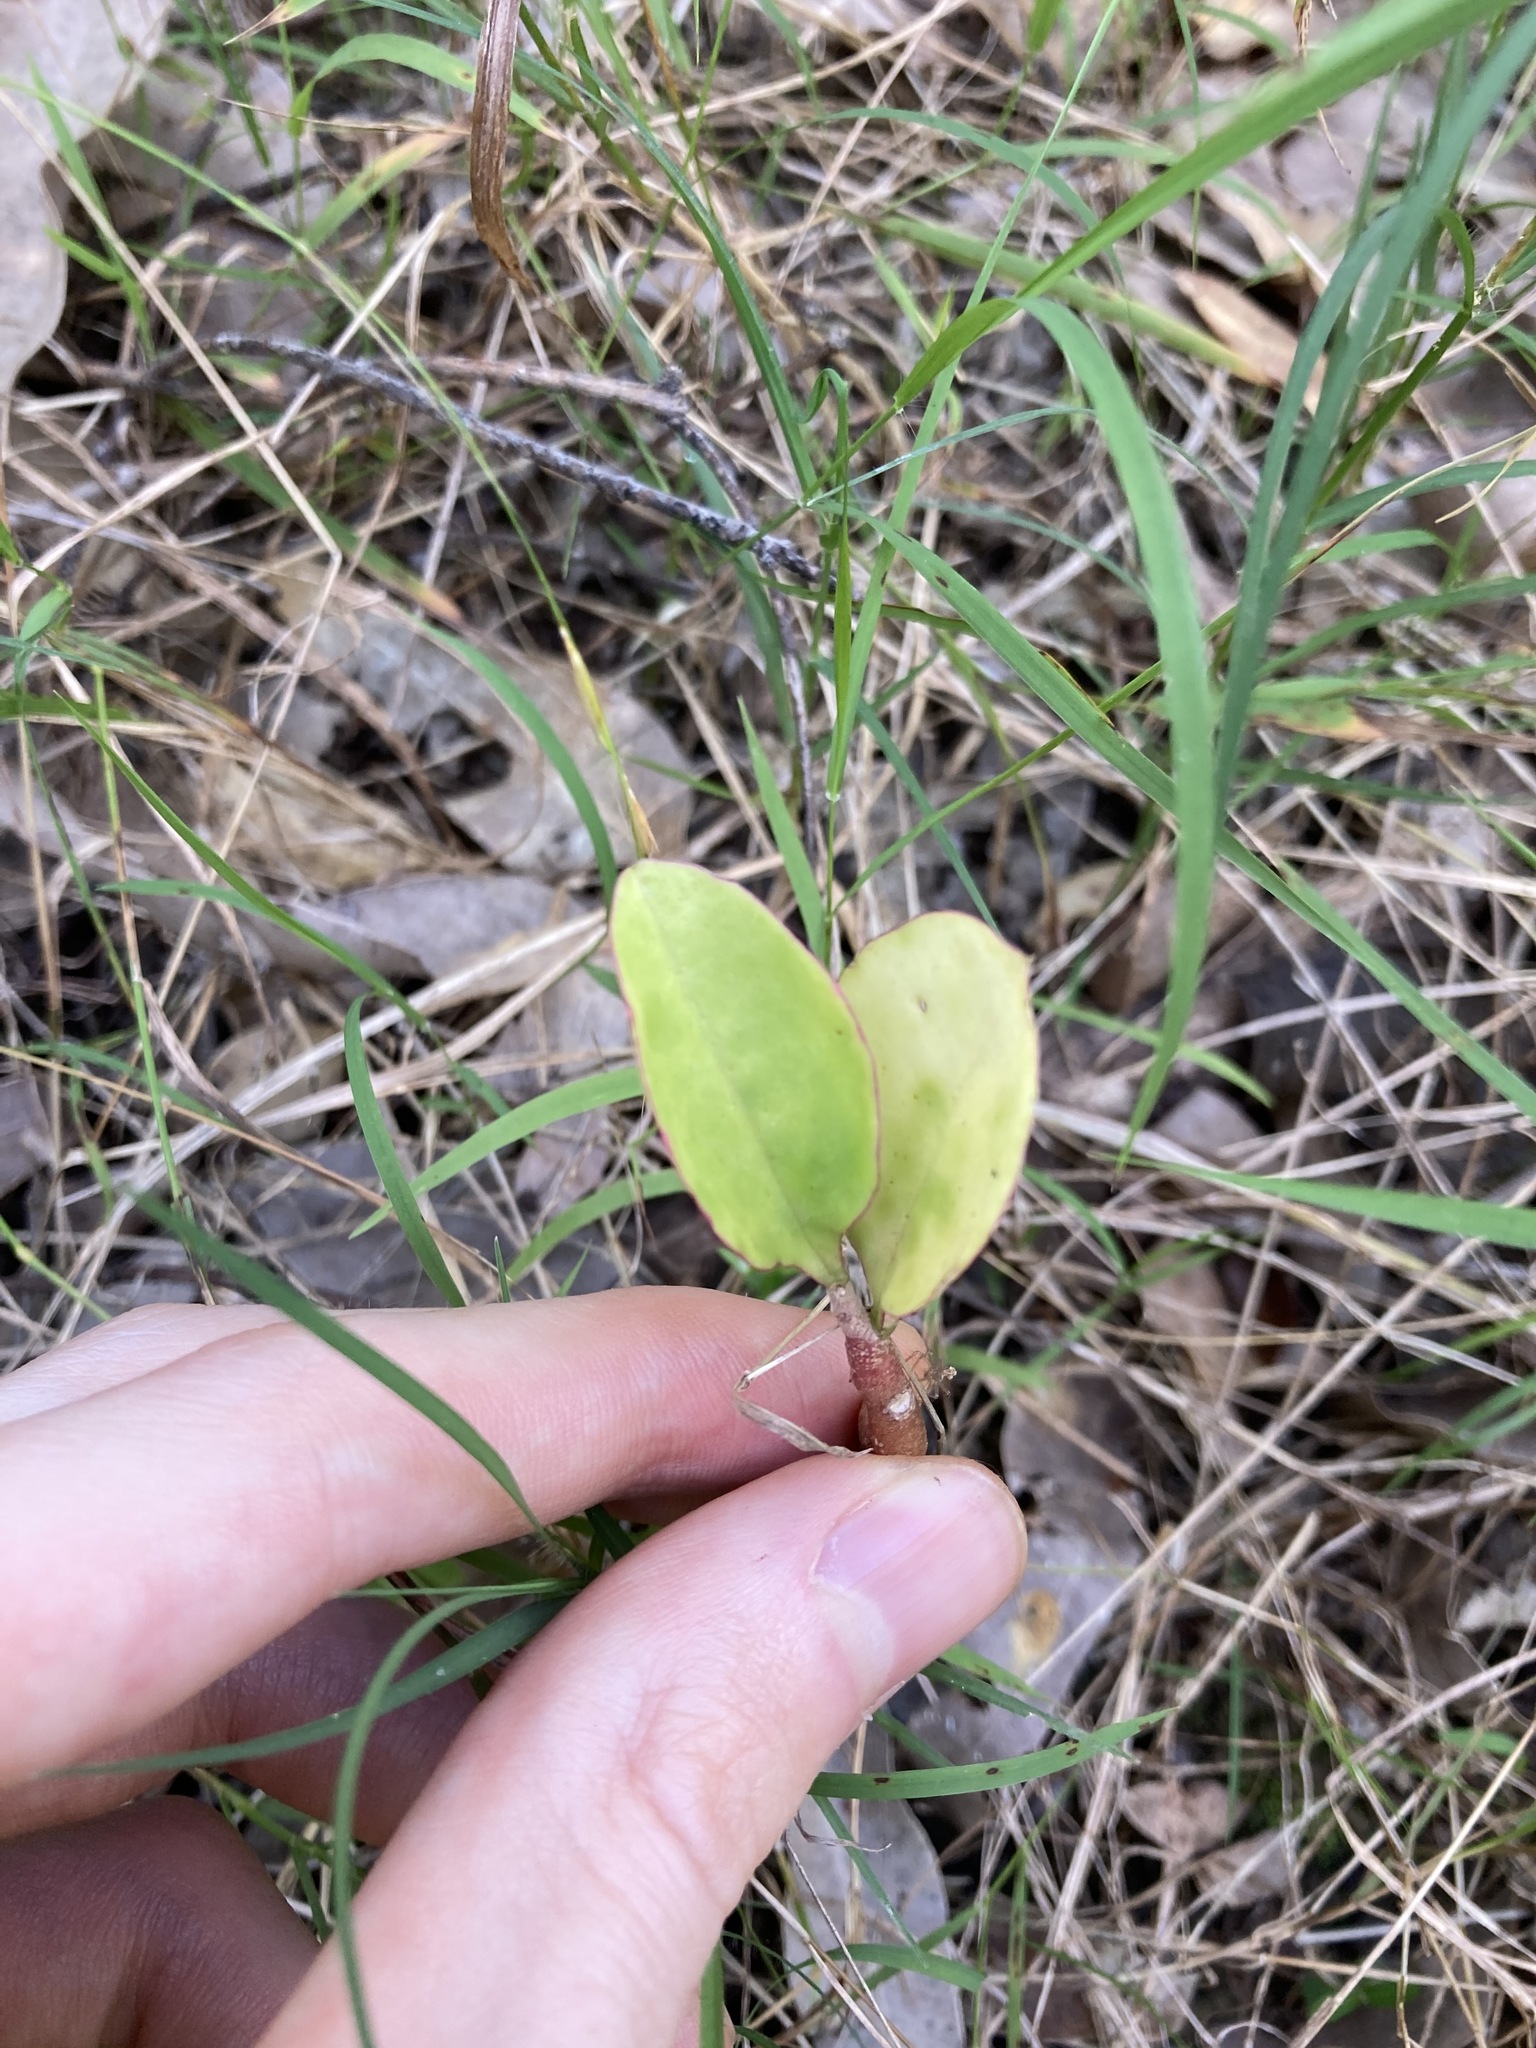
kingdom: Plantae
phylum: Tracheophyta
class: Magnoliopsida
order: Saxifragales
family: Crassulaceae
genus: Kalanchoe
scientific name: Kalanchoe pinnata
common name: Cathedral bells
